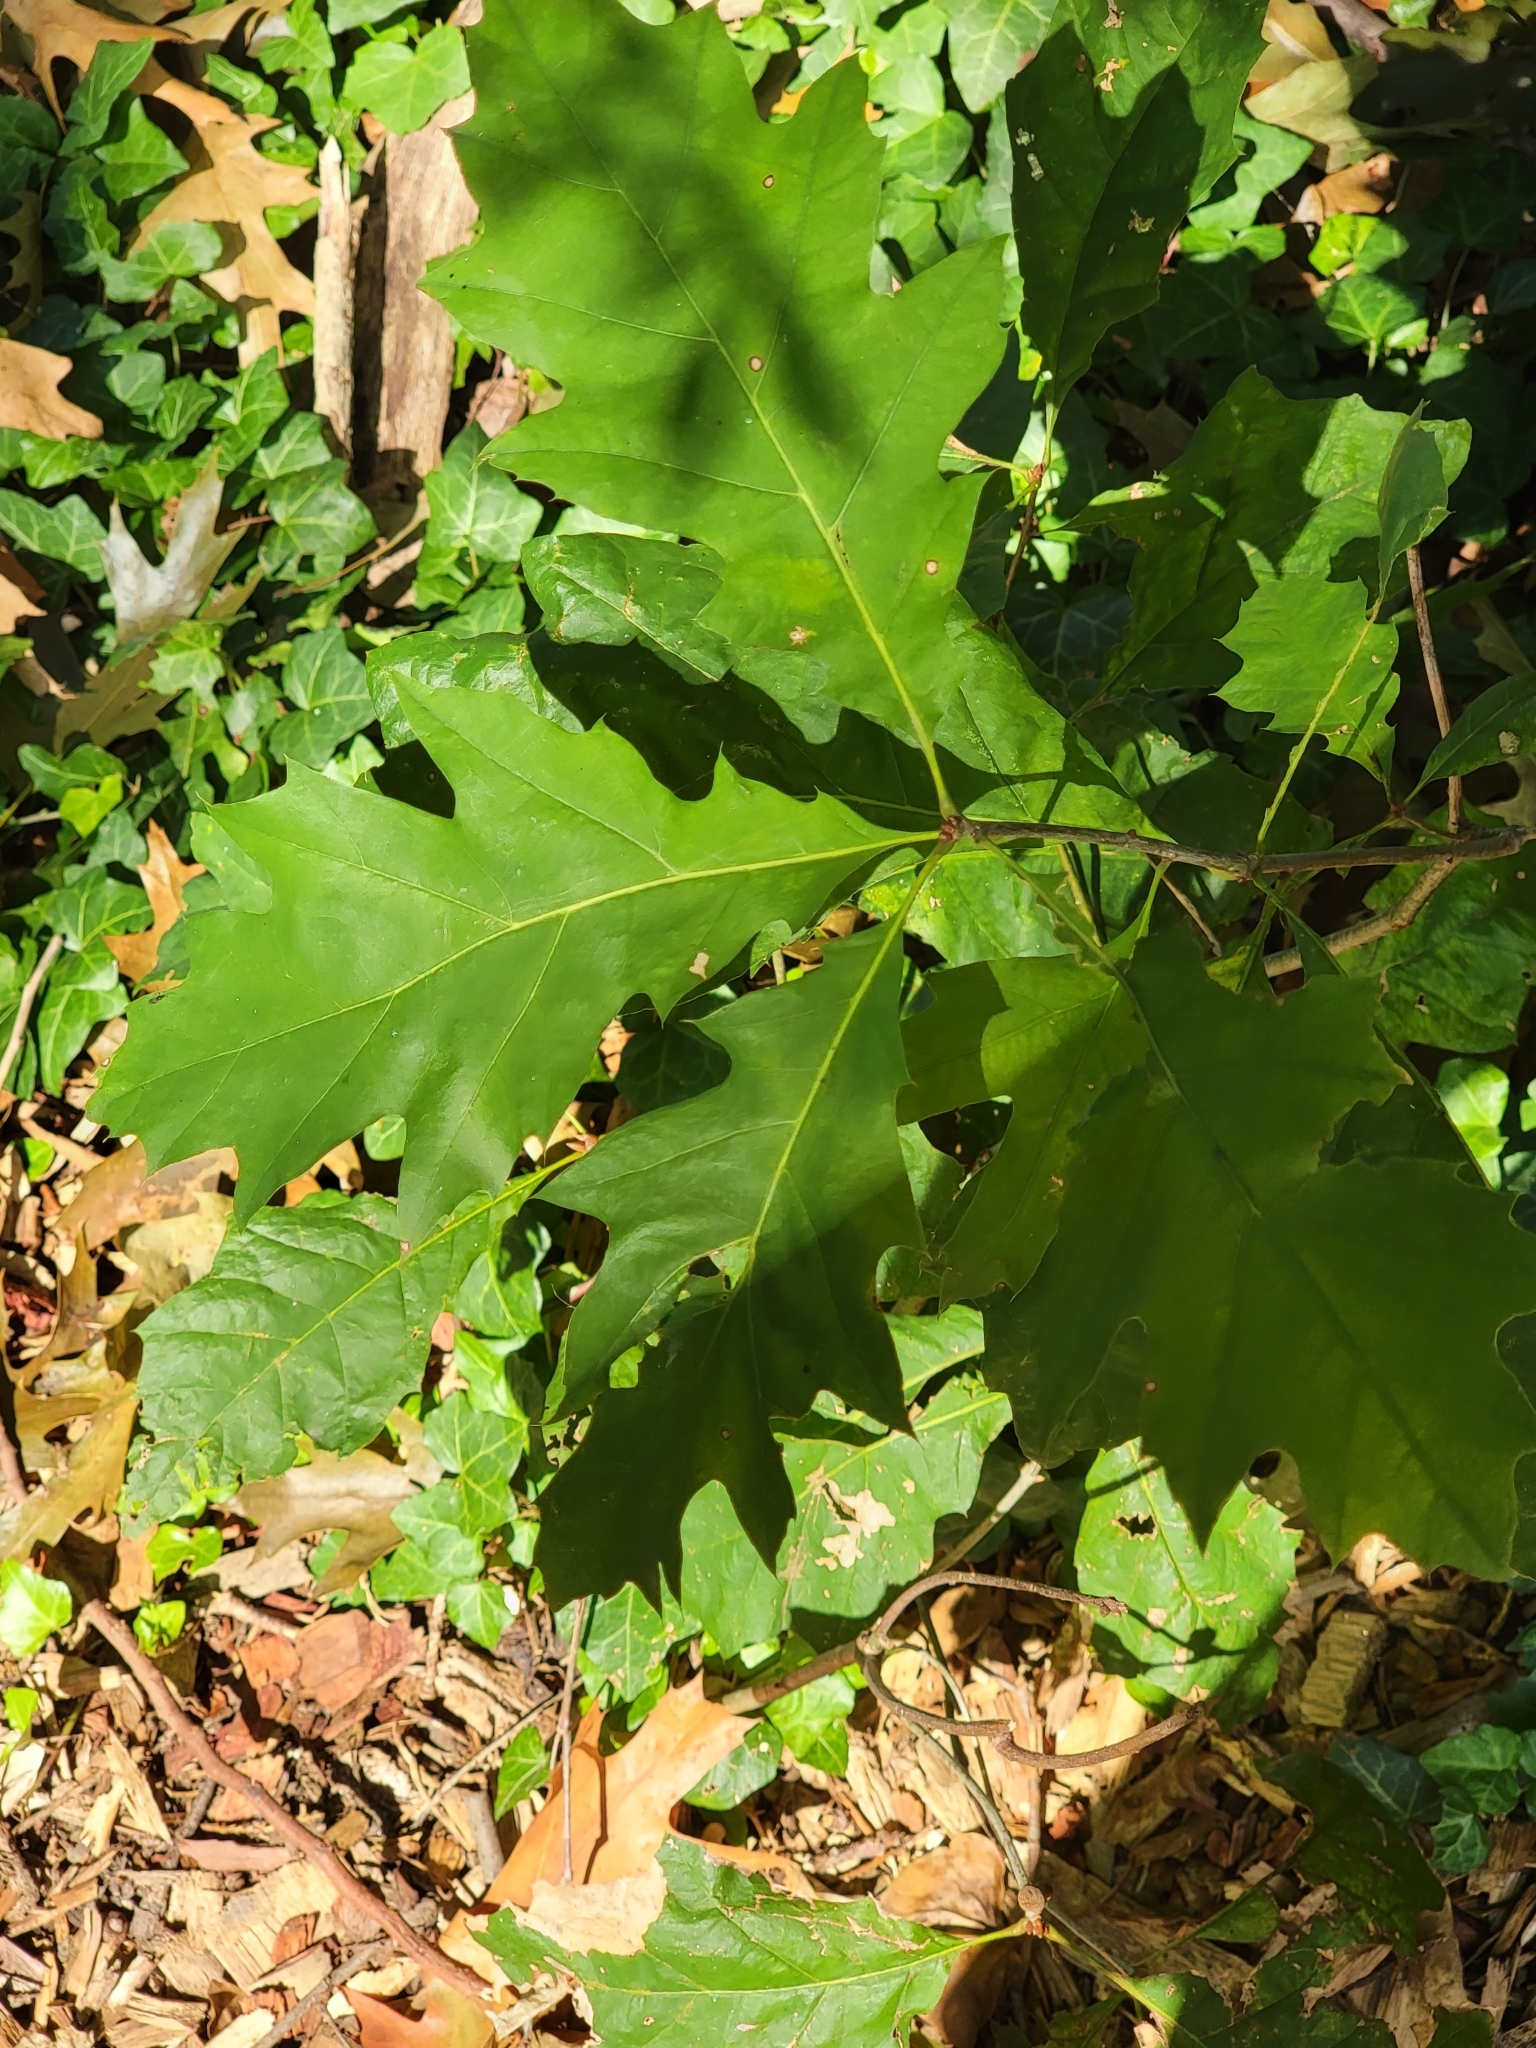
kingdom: Plantae
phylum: Tracheophyta
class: Magnoliopsida
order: Fagales
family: Fagaceae
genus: Quercus
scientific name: Quercus rubra
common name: Red oak
